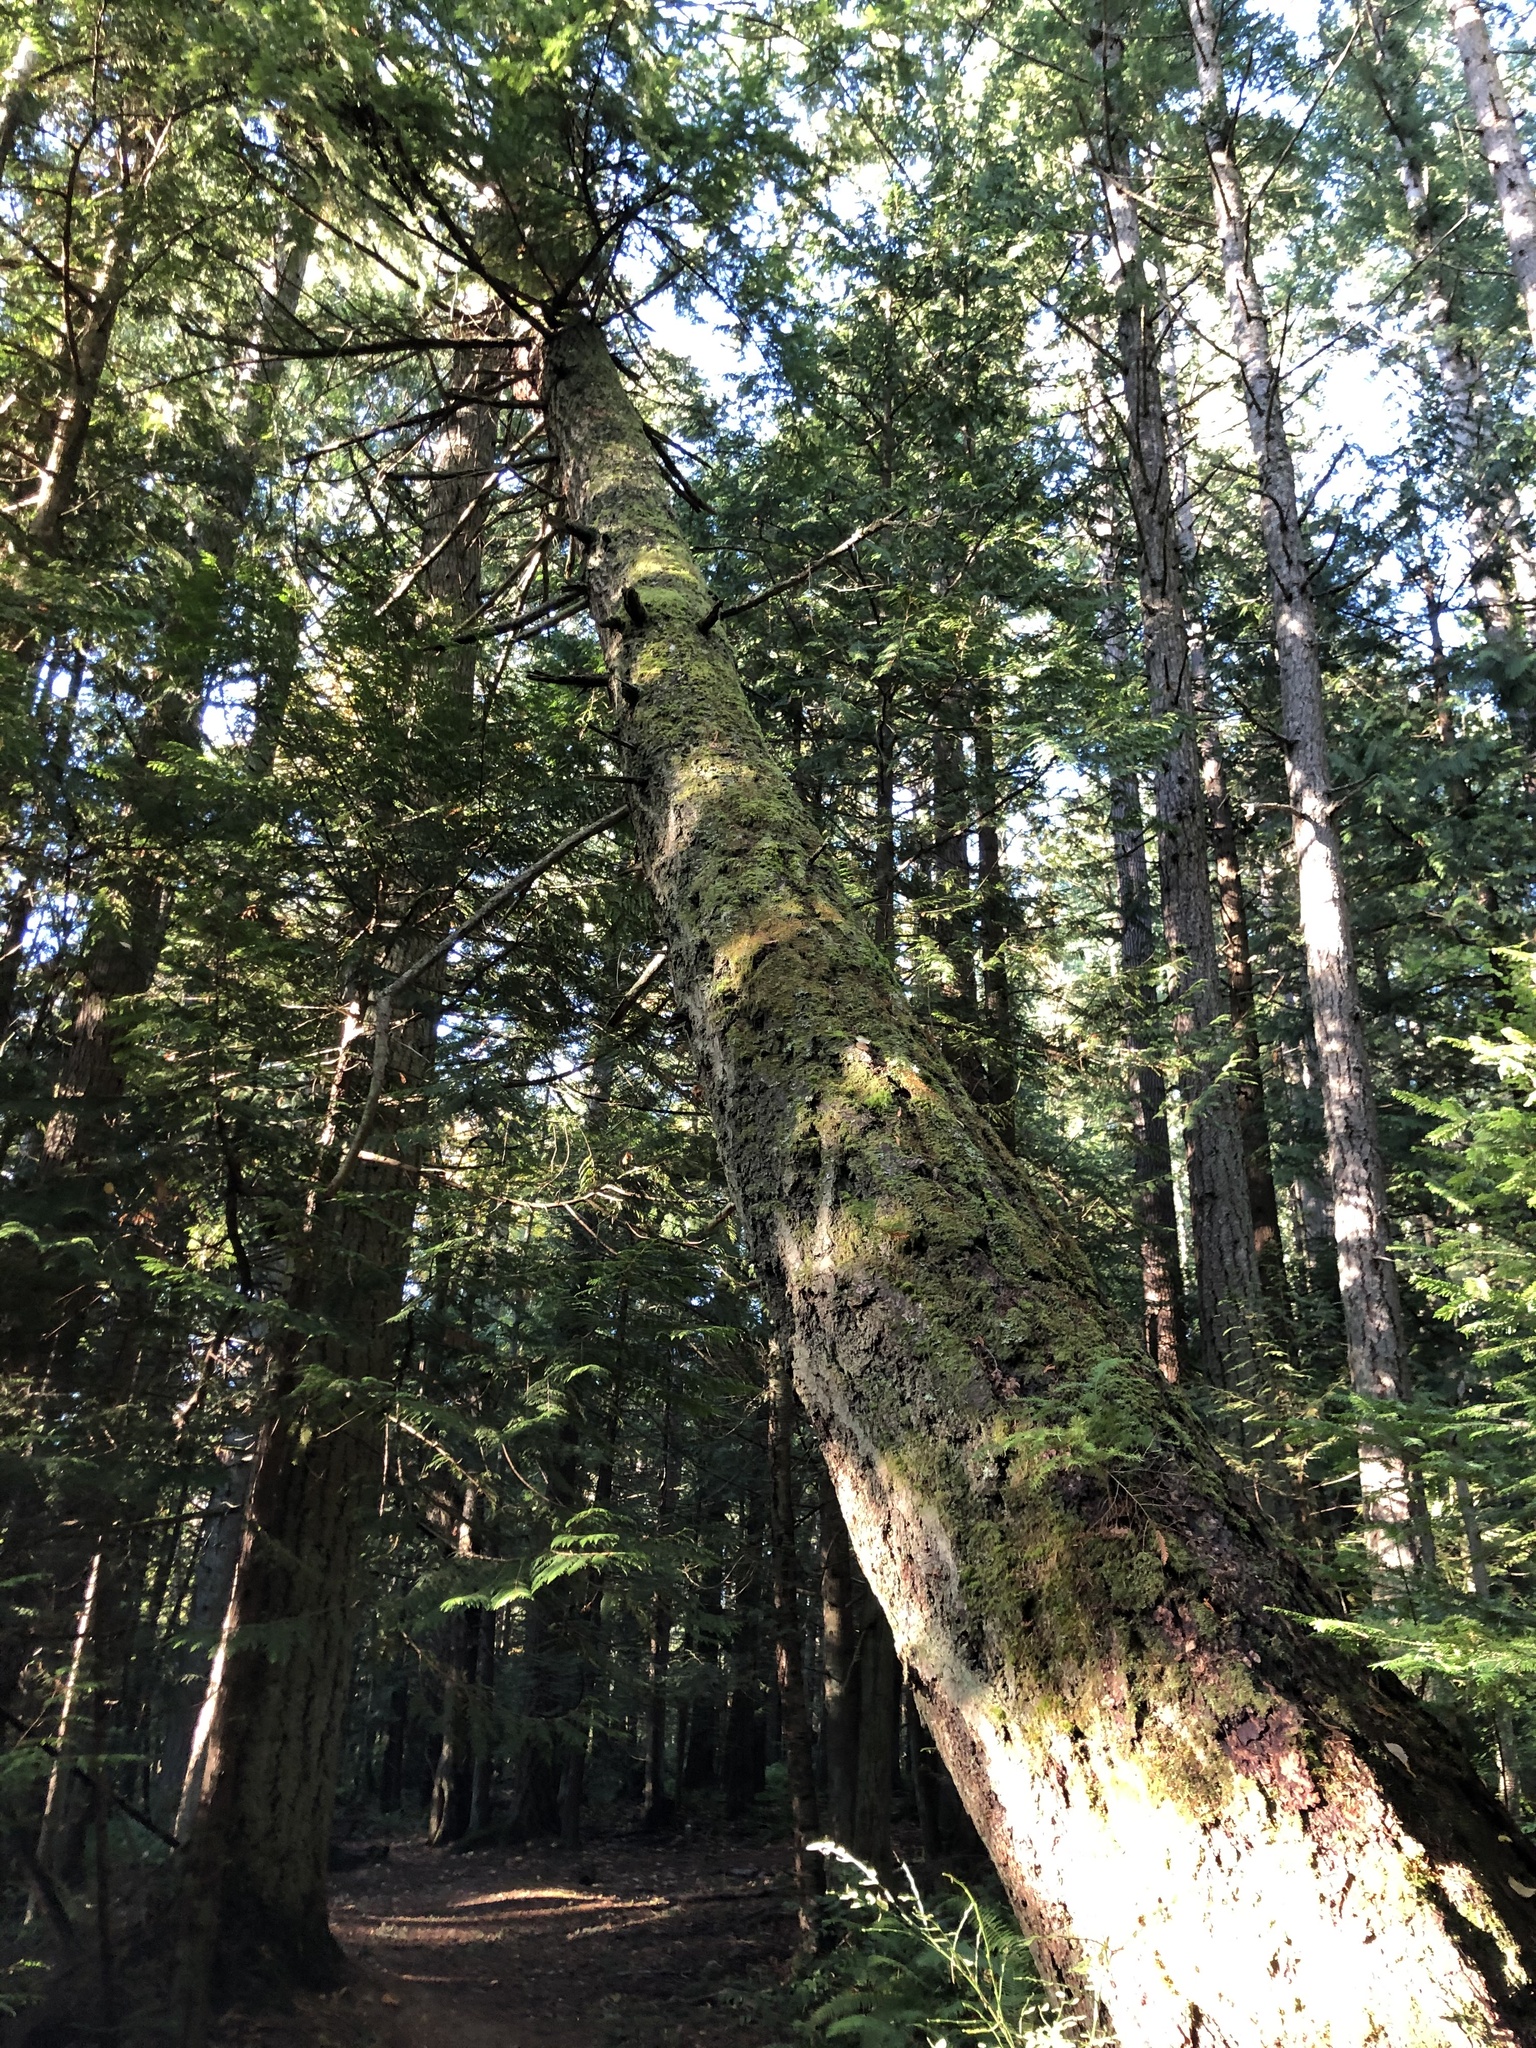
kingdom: Plantae
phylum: Tracheophyta
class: Pinopsida
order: Pinales
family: Pinaceae
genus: Pseudotsuga
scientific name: Pseudotsuga menziesii
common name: Douglas fir
